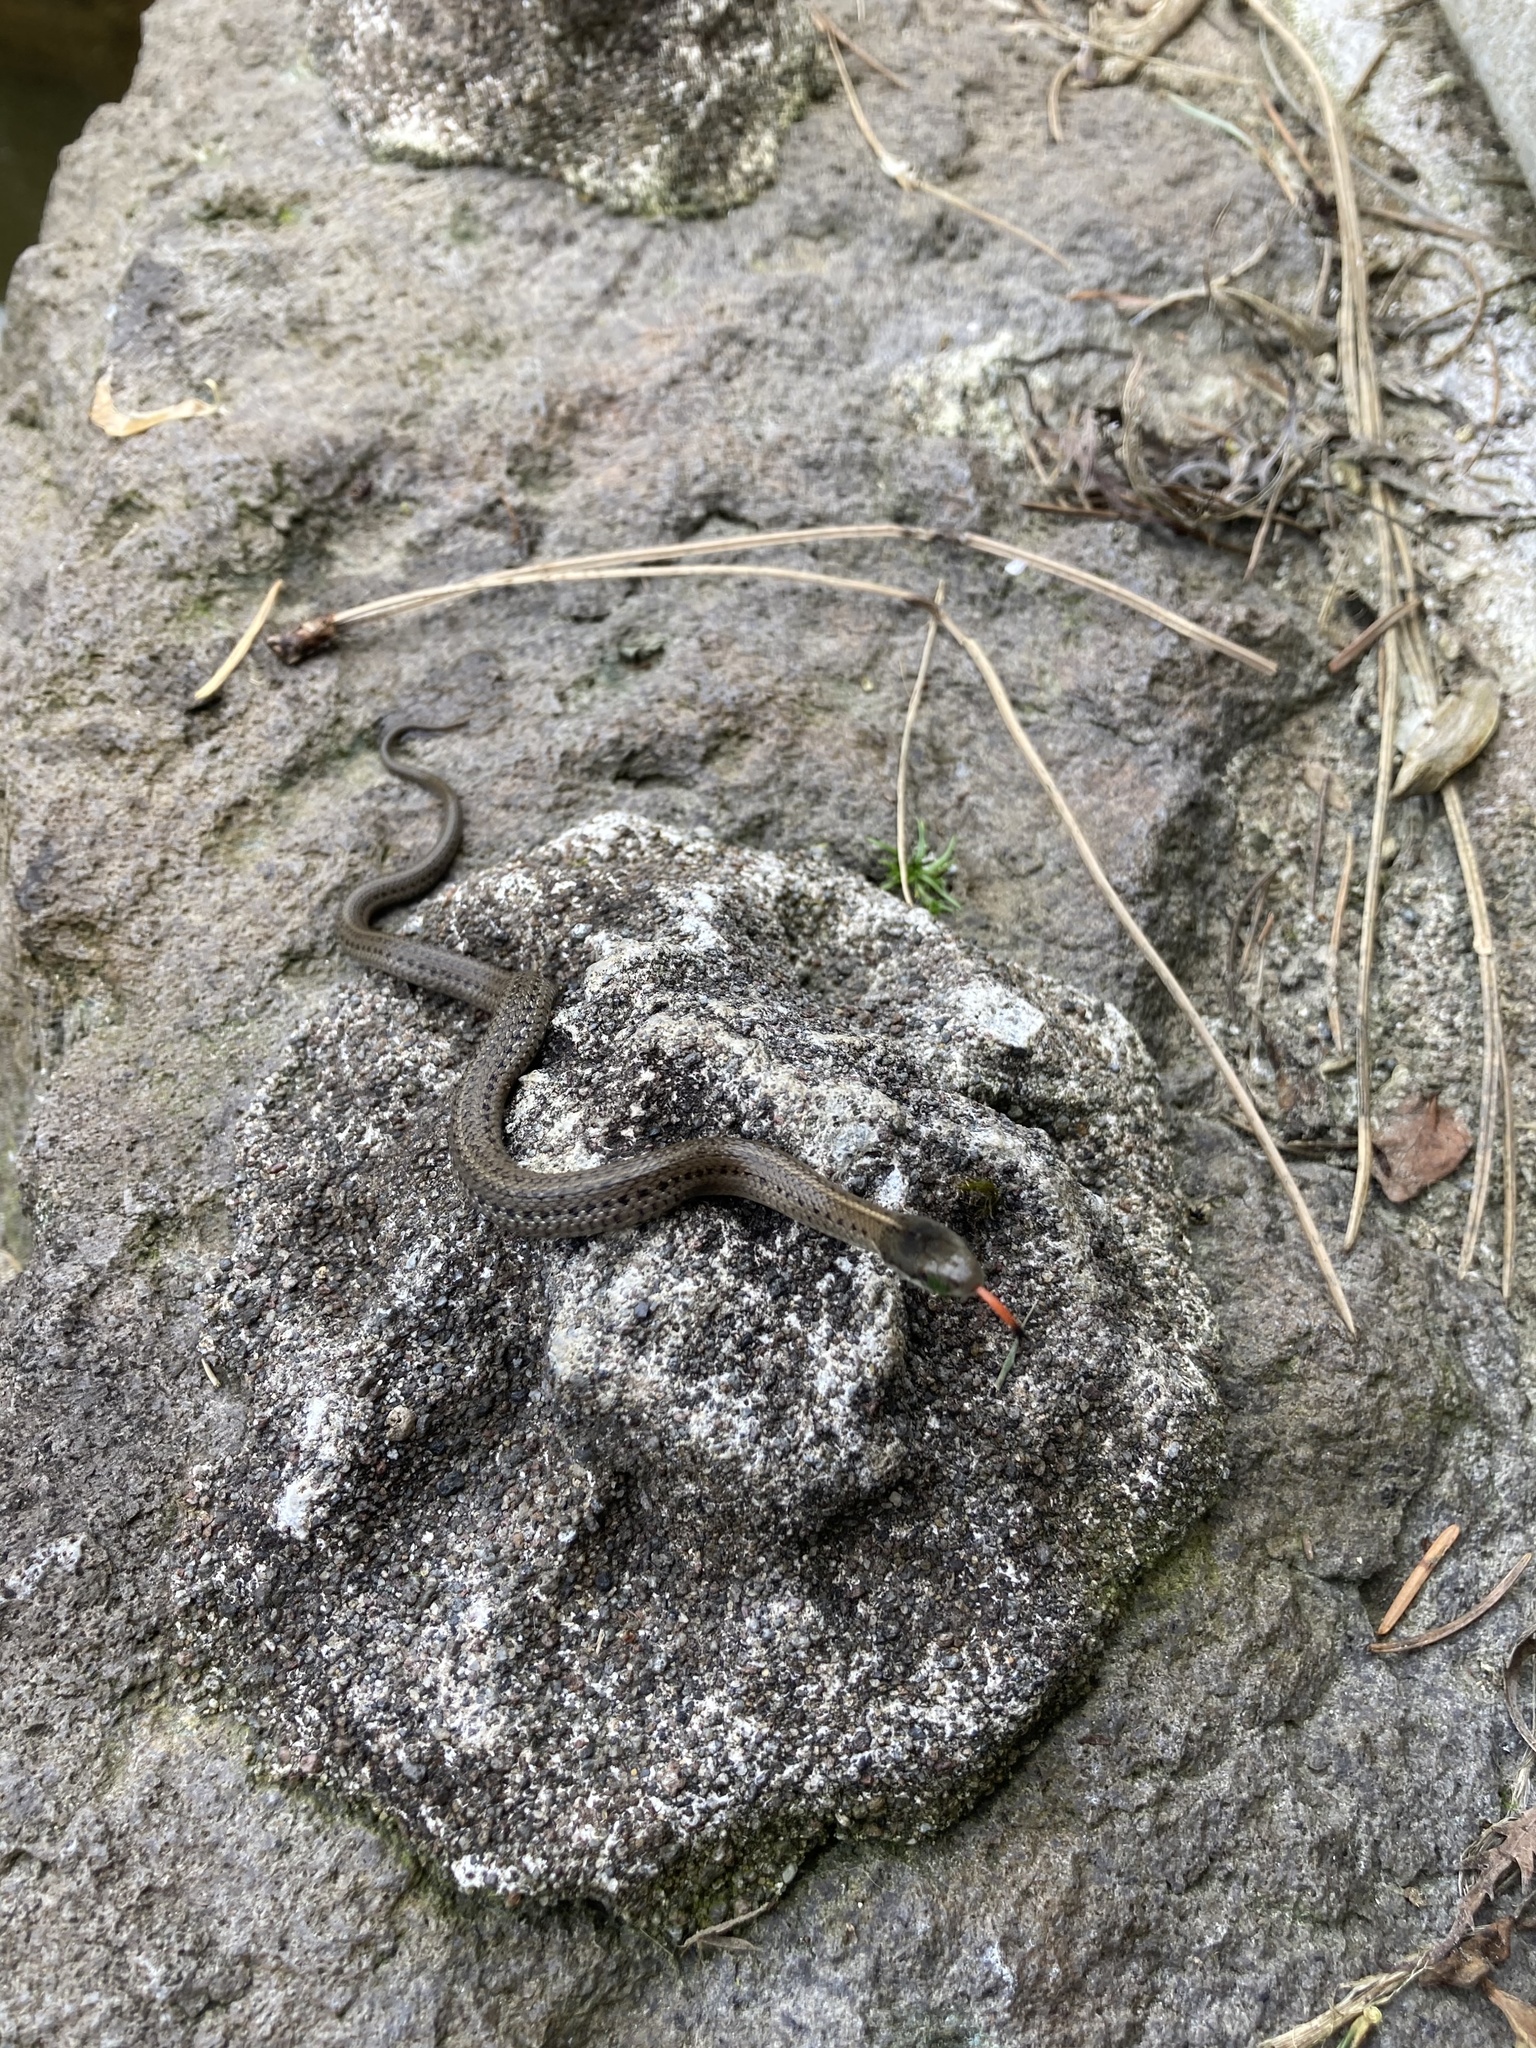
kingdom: Animalia
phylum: Chordata
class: Squamata
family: Colubridae
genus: Thamnophis
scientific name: Thamnophis ordinoides
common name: Northwestern garter snake
